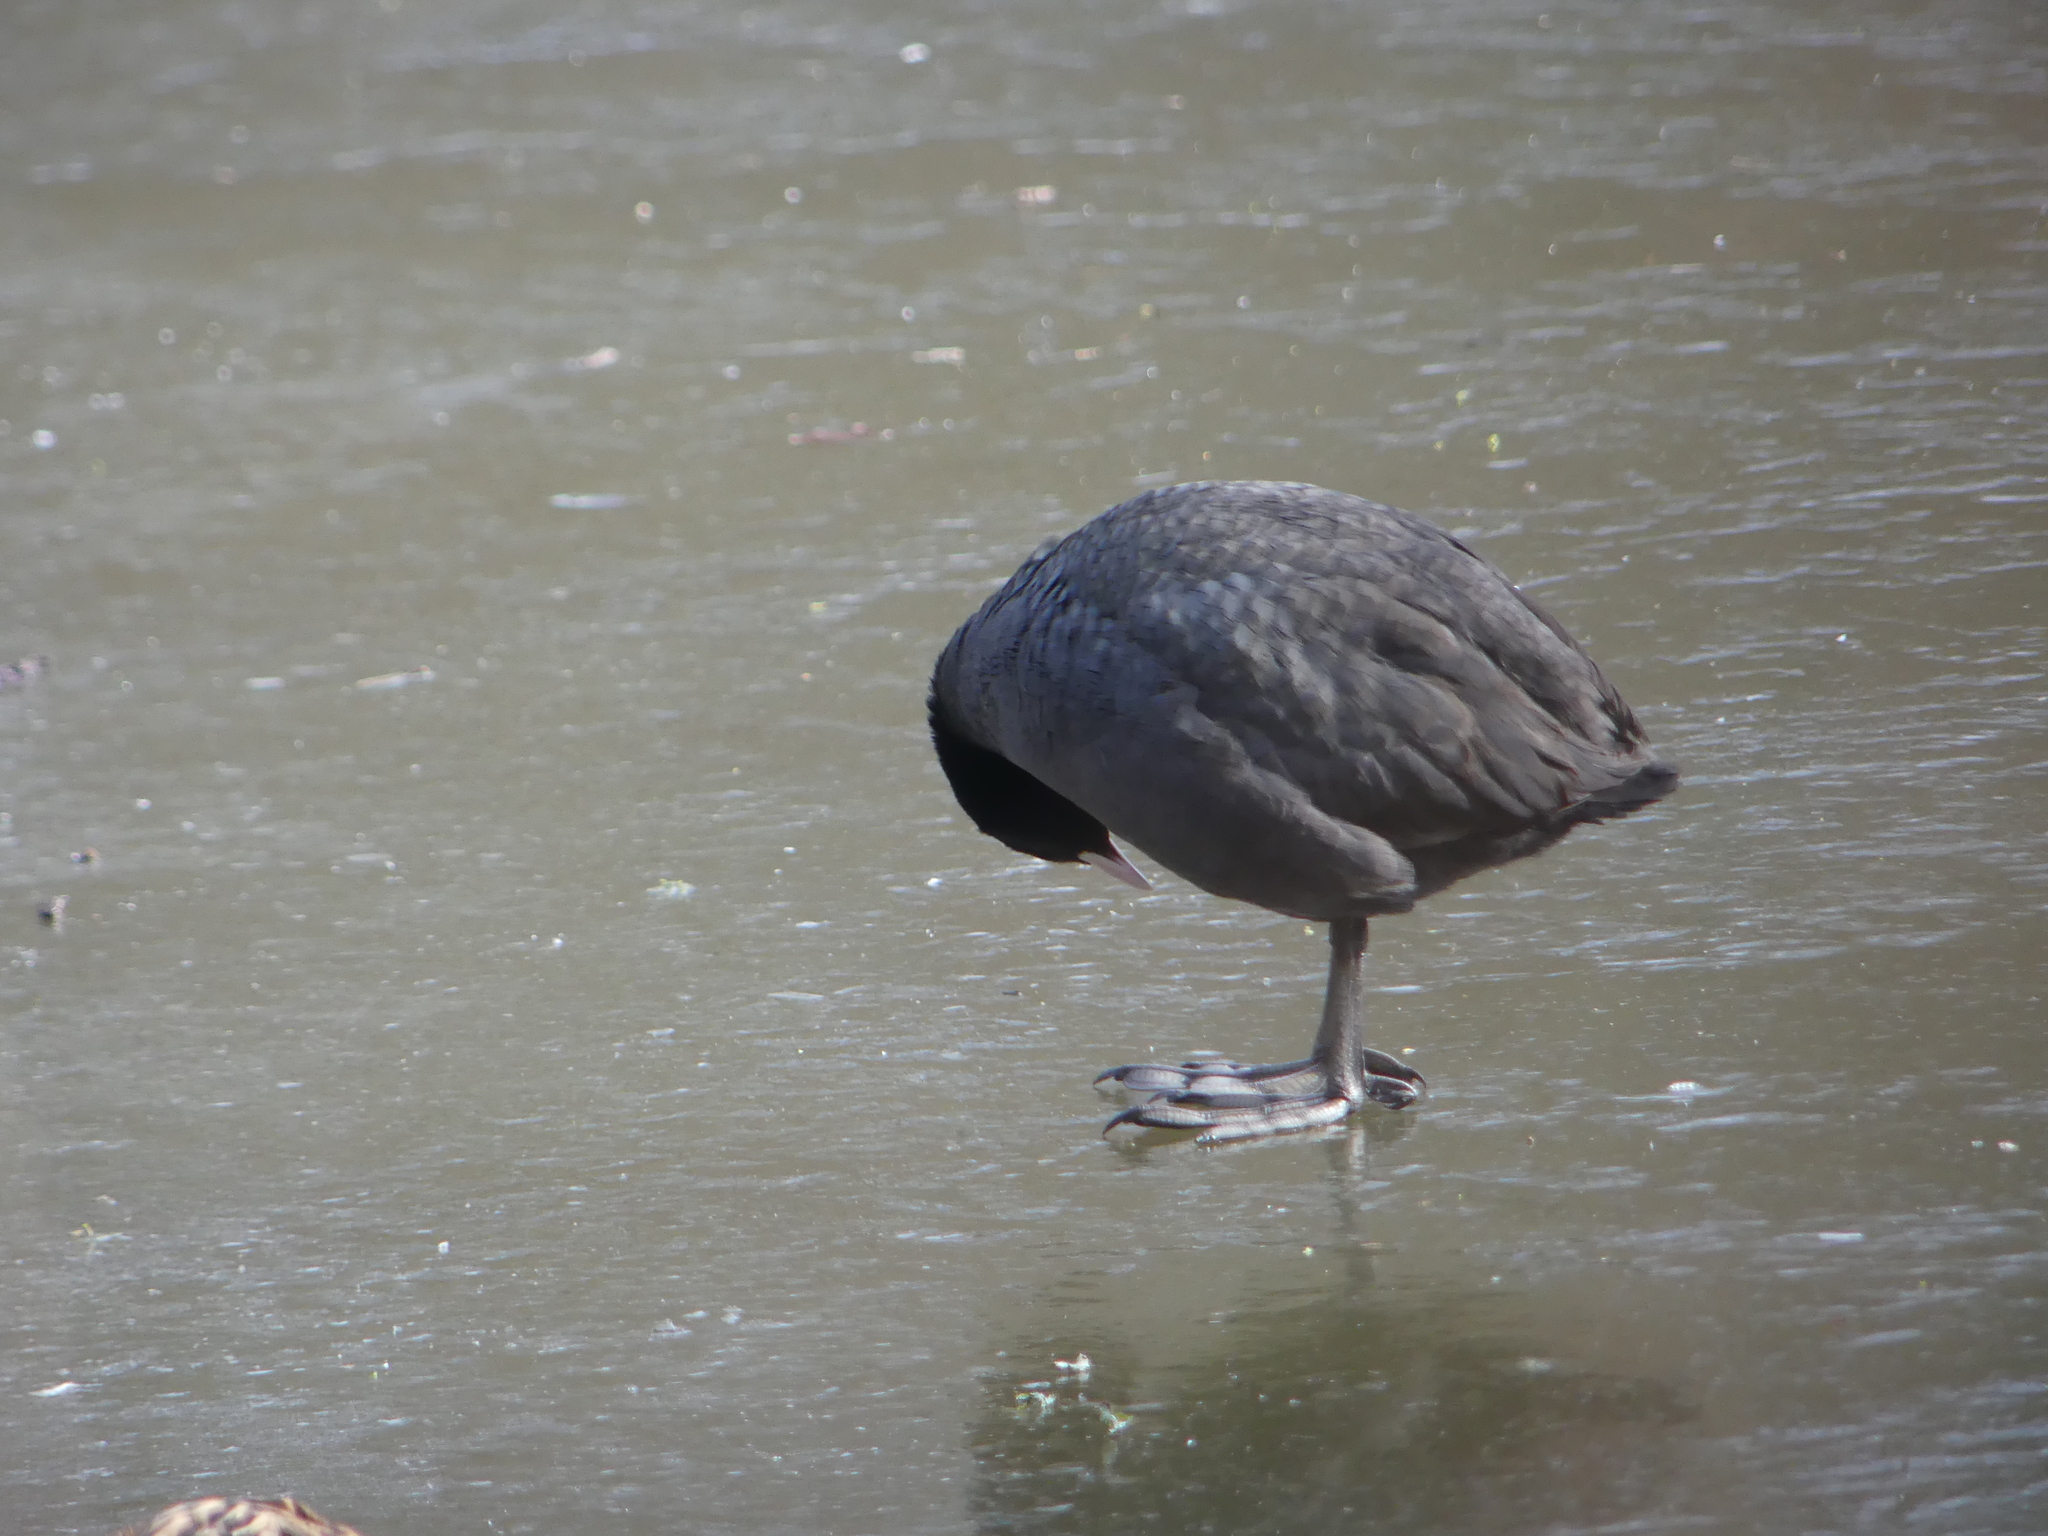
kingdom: Animalia
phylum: Chordata
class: Aves
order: Gruiformes
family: Rallidae
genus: Fulica
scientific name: Fulica atra
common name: Eurasian coot
